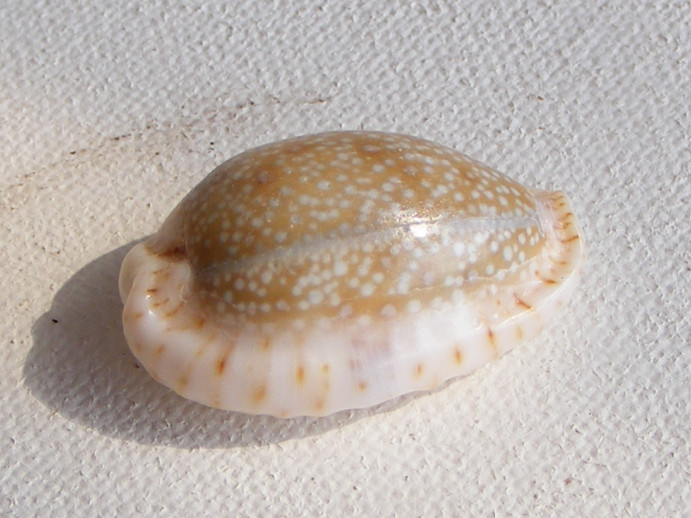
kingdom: Animalia
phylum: Mollusca
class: Gastropoda
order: Littorinimorpha
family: Cypraeidae
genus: Naria
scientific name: Naria erosa
